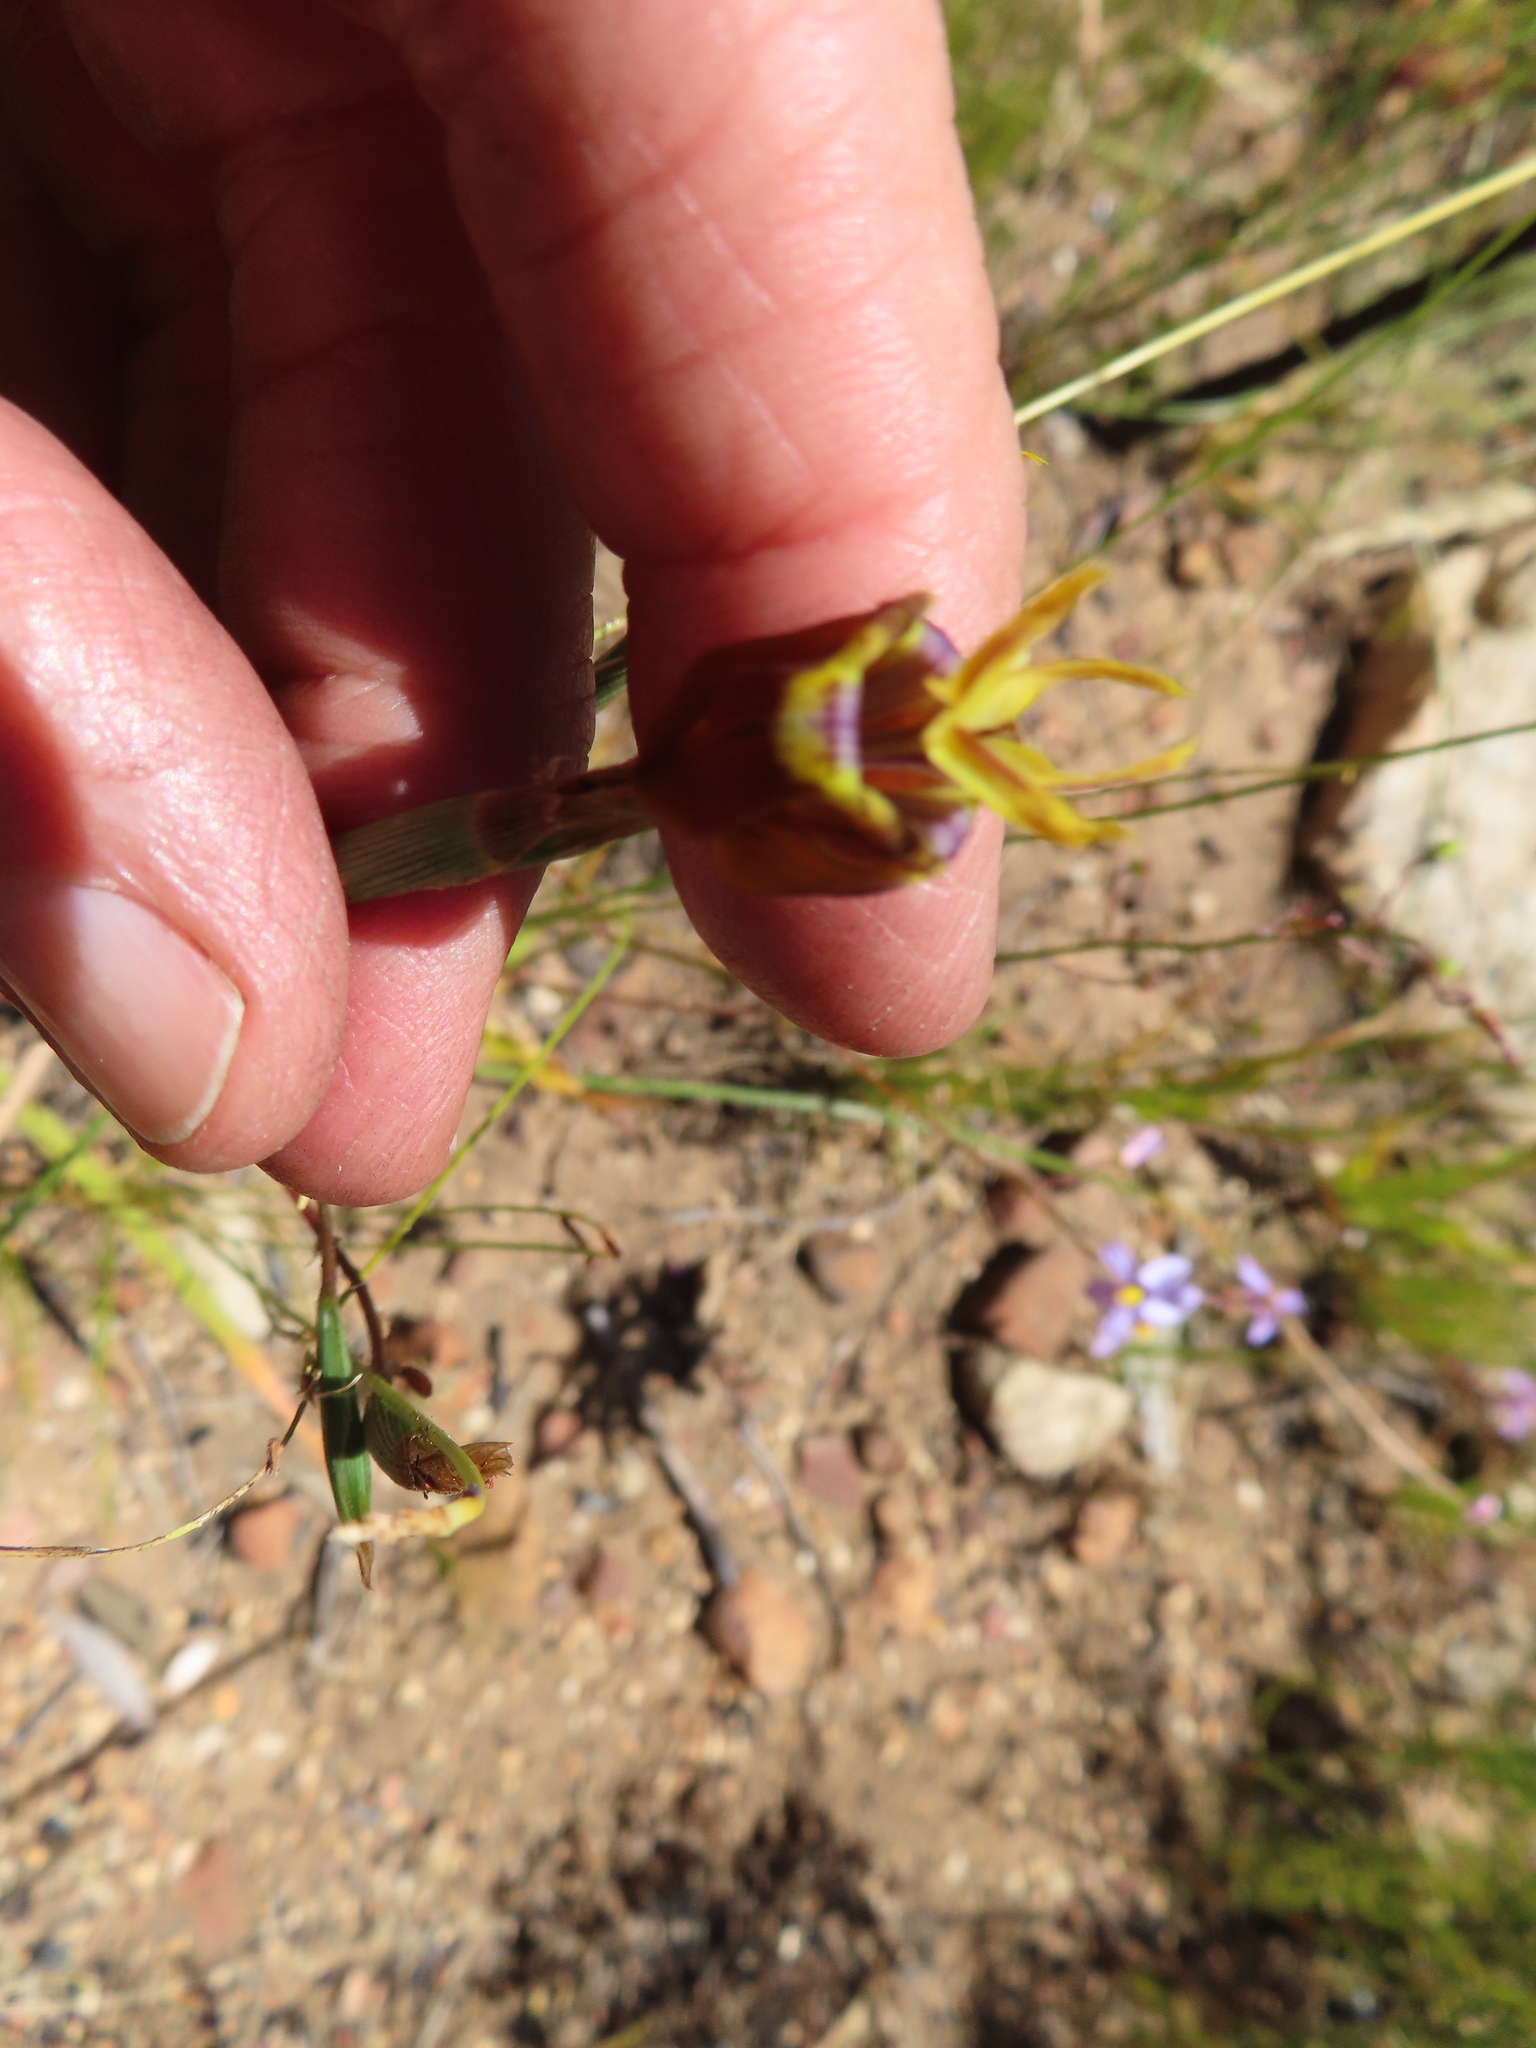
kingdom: Plantae
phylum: Tracheophyta
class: Liliopsida
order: Asparagales
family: Iridaceae
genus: Moraea
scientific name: Moraea inconspicua
